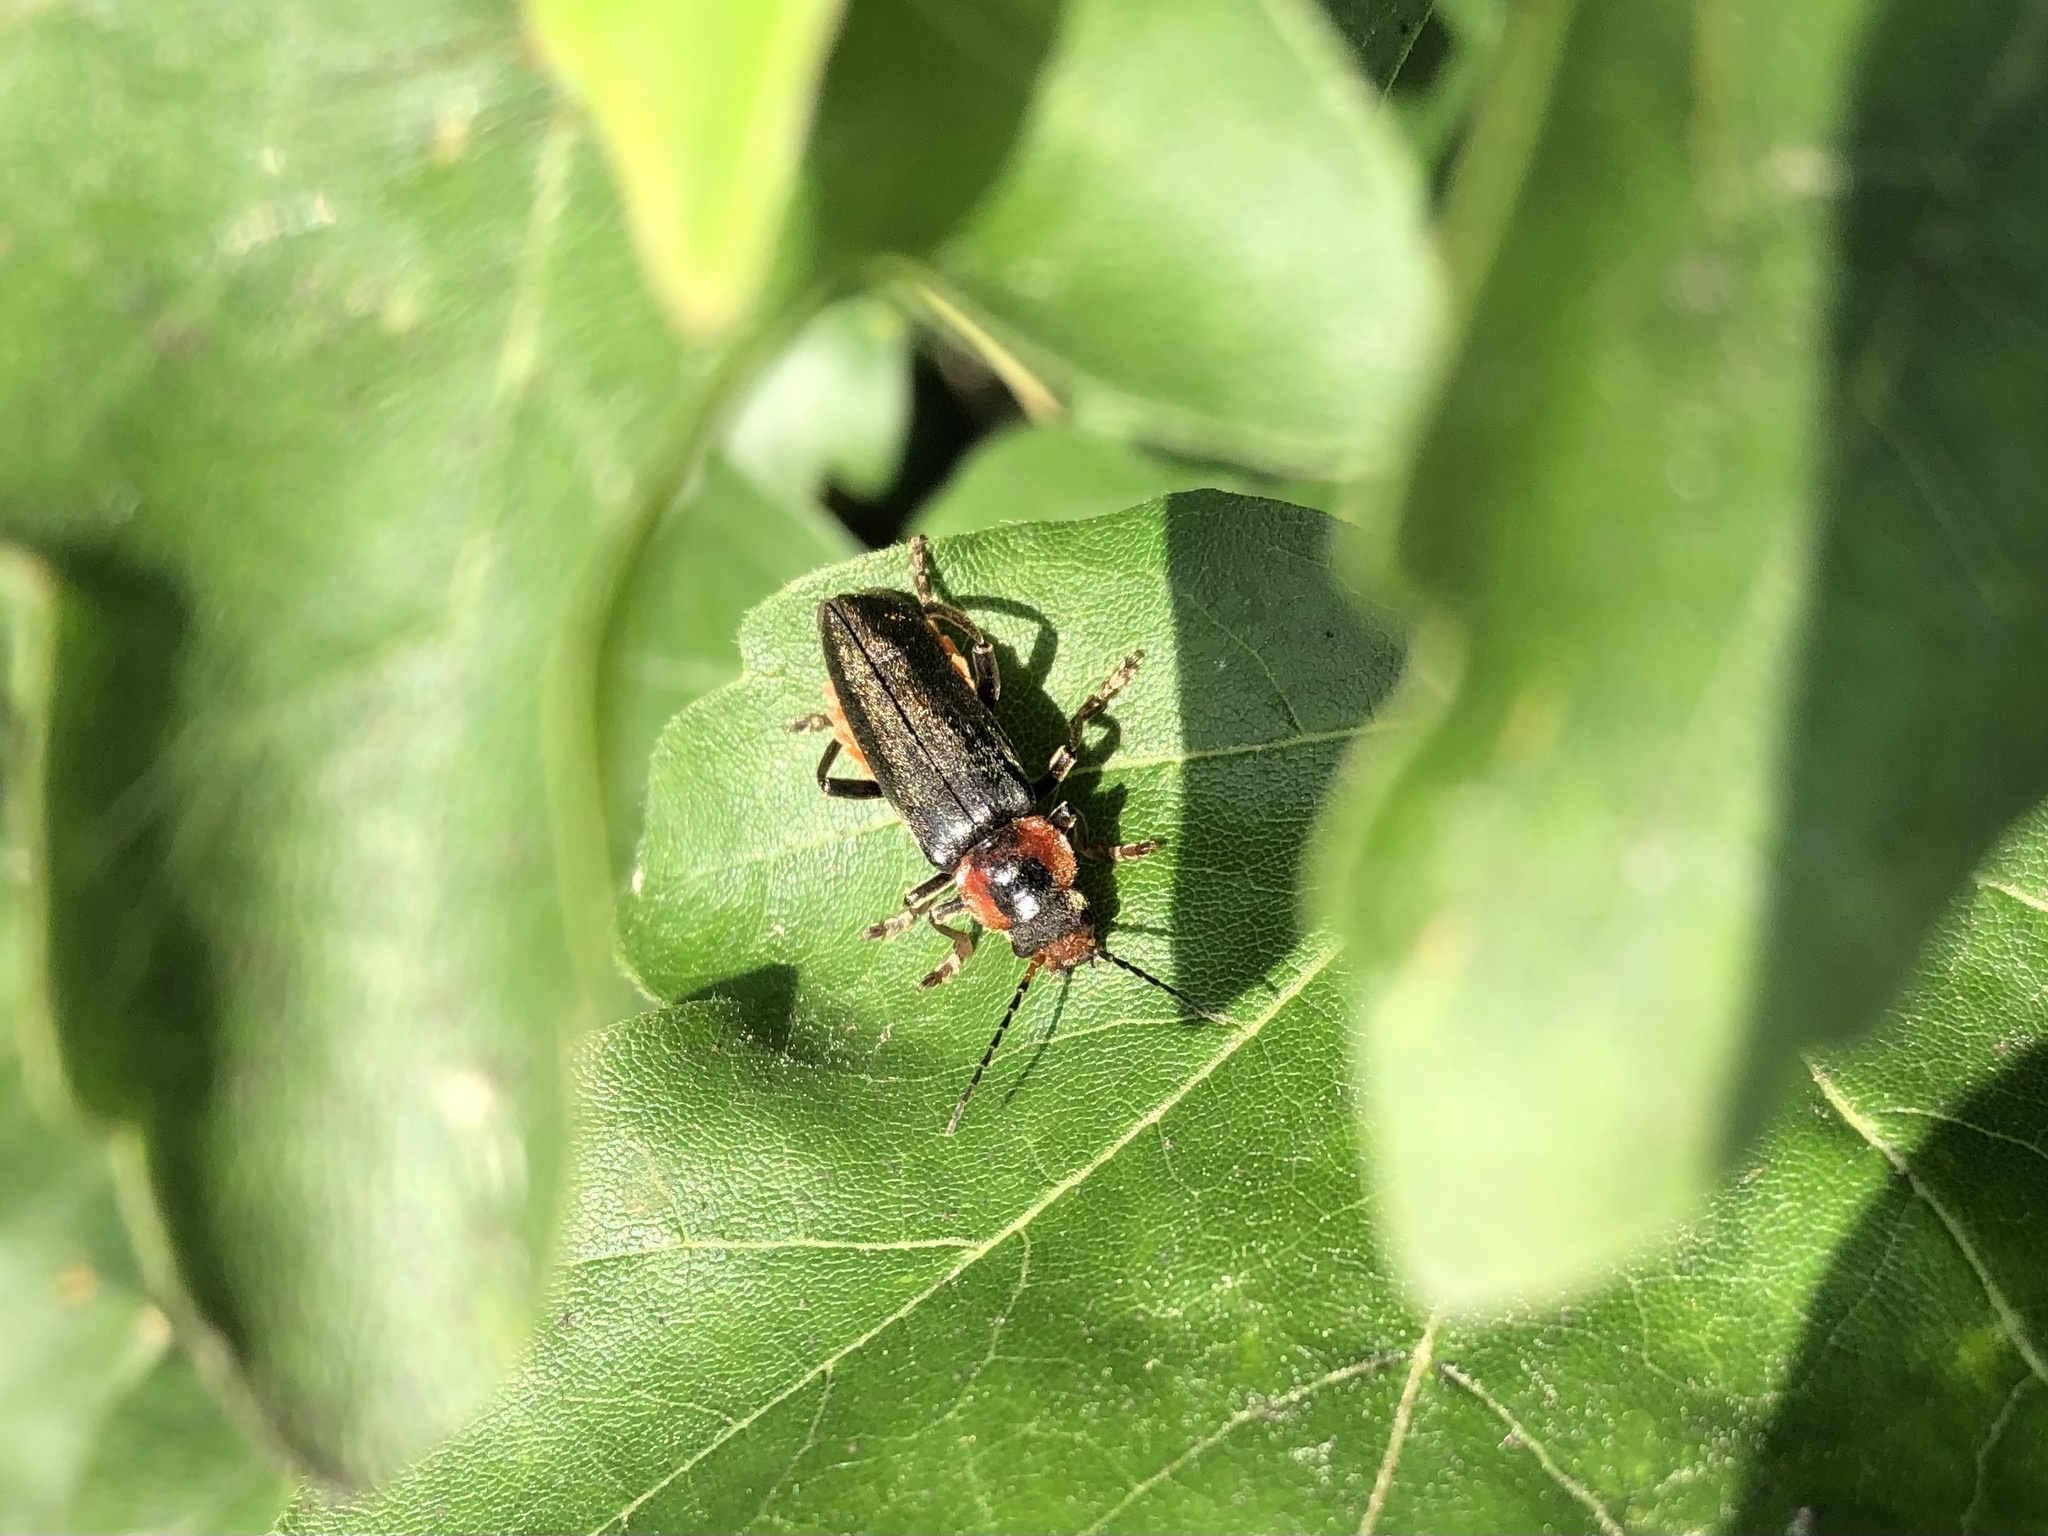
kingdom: Animalia
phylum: Arthropoda
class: Insecta
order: Coleoptera
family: Cantharidae
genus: Cantharis
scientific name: Cantharis fusca
